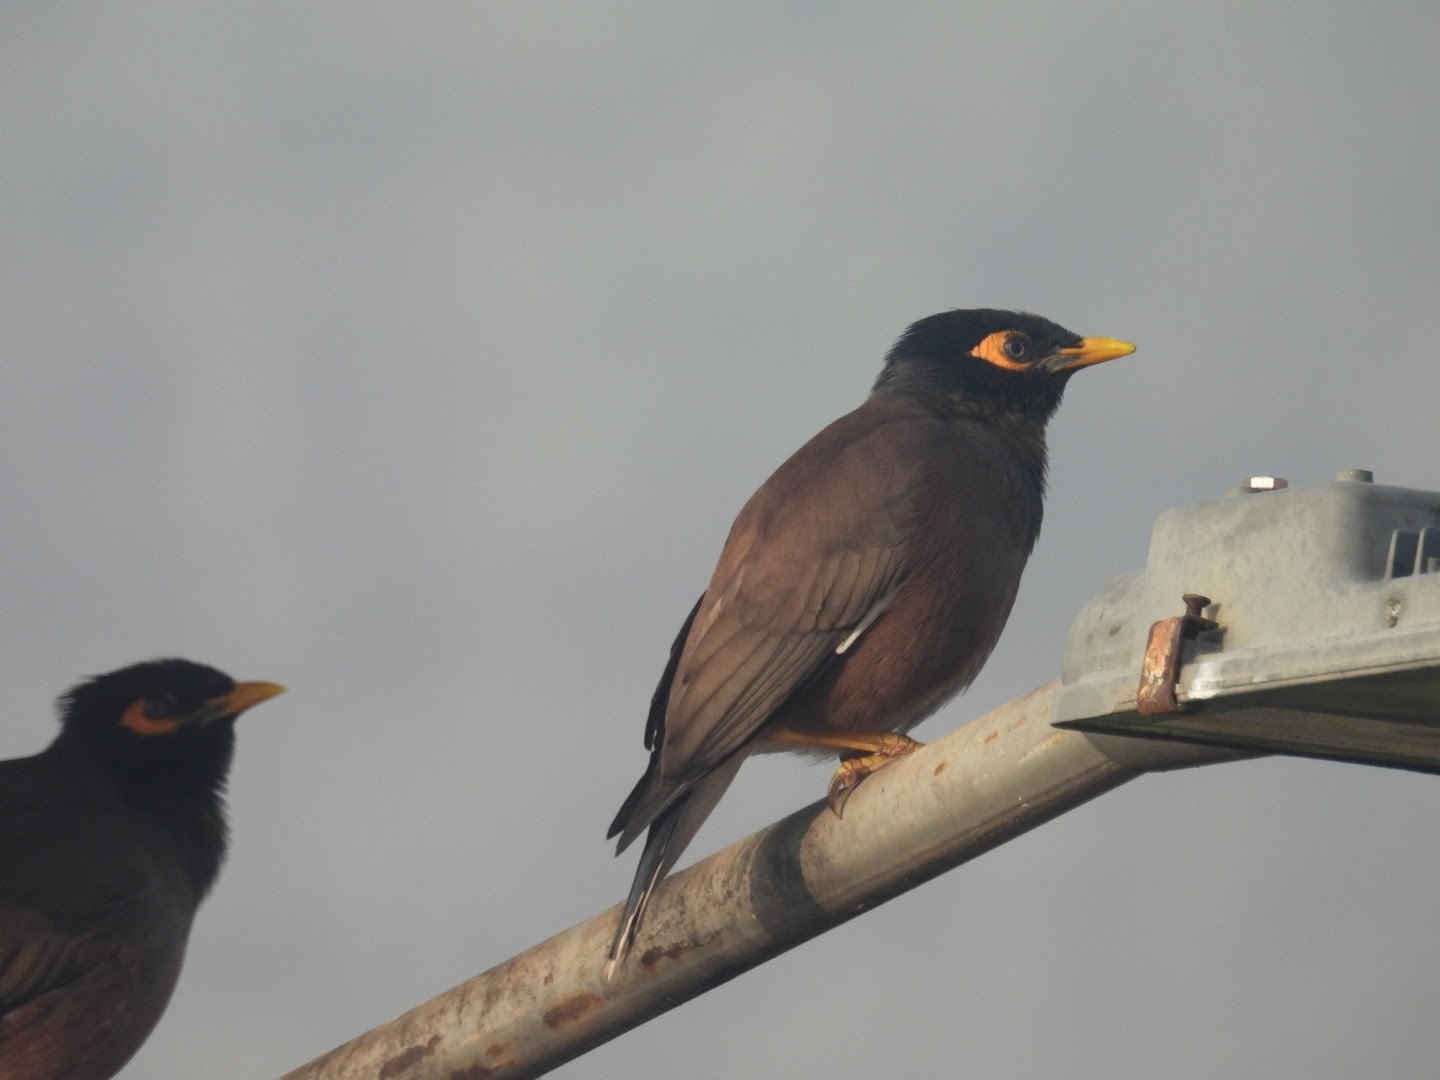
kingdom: Animalia
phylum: Chordata
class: Aves
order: Passeriformes
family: Sturnidae
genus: Acridotheres
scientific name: Acridotheres tristis
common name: Common myna
